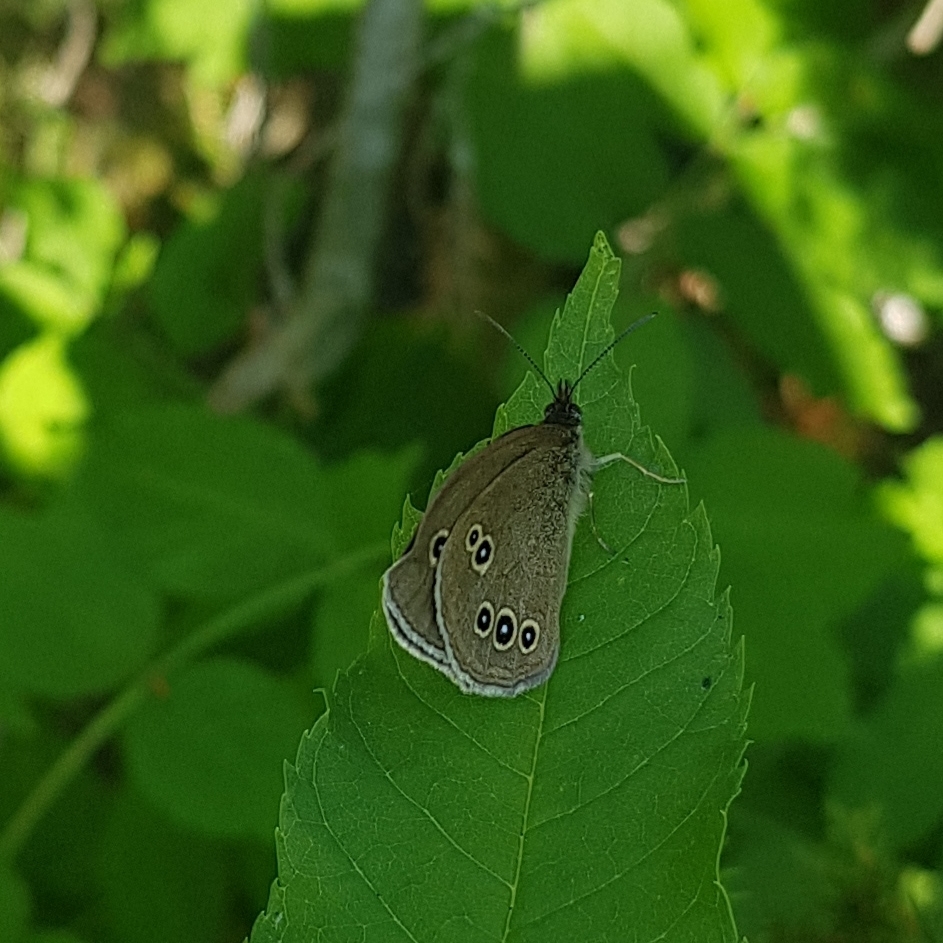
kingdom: Animalia
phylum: Arthropoda
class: Insecta
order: Lepidoptera
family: Nymphalidae
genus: Aphantopus
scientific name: Aphantopus hyperantus
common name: Ringlet
